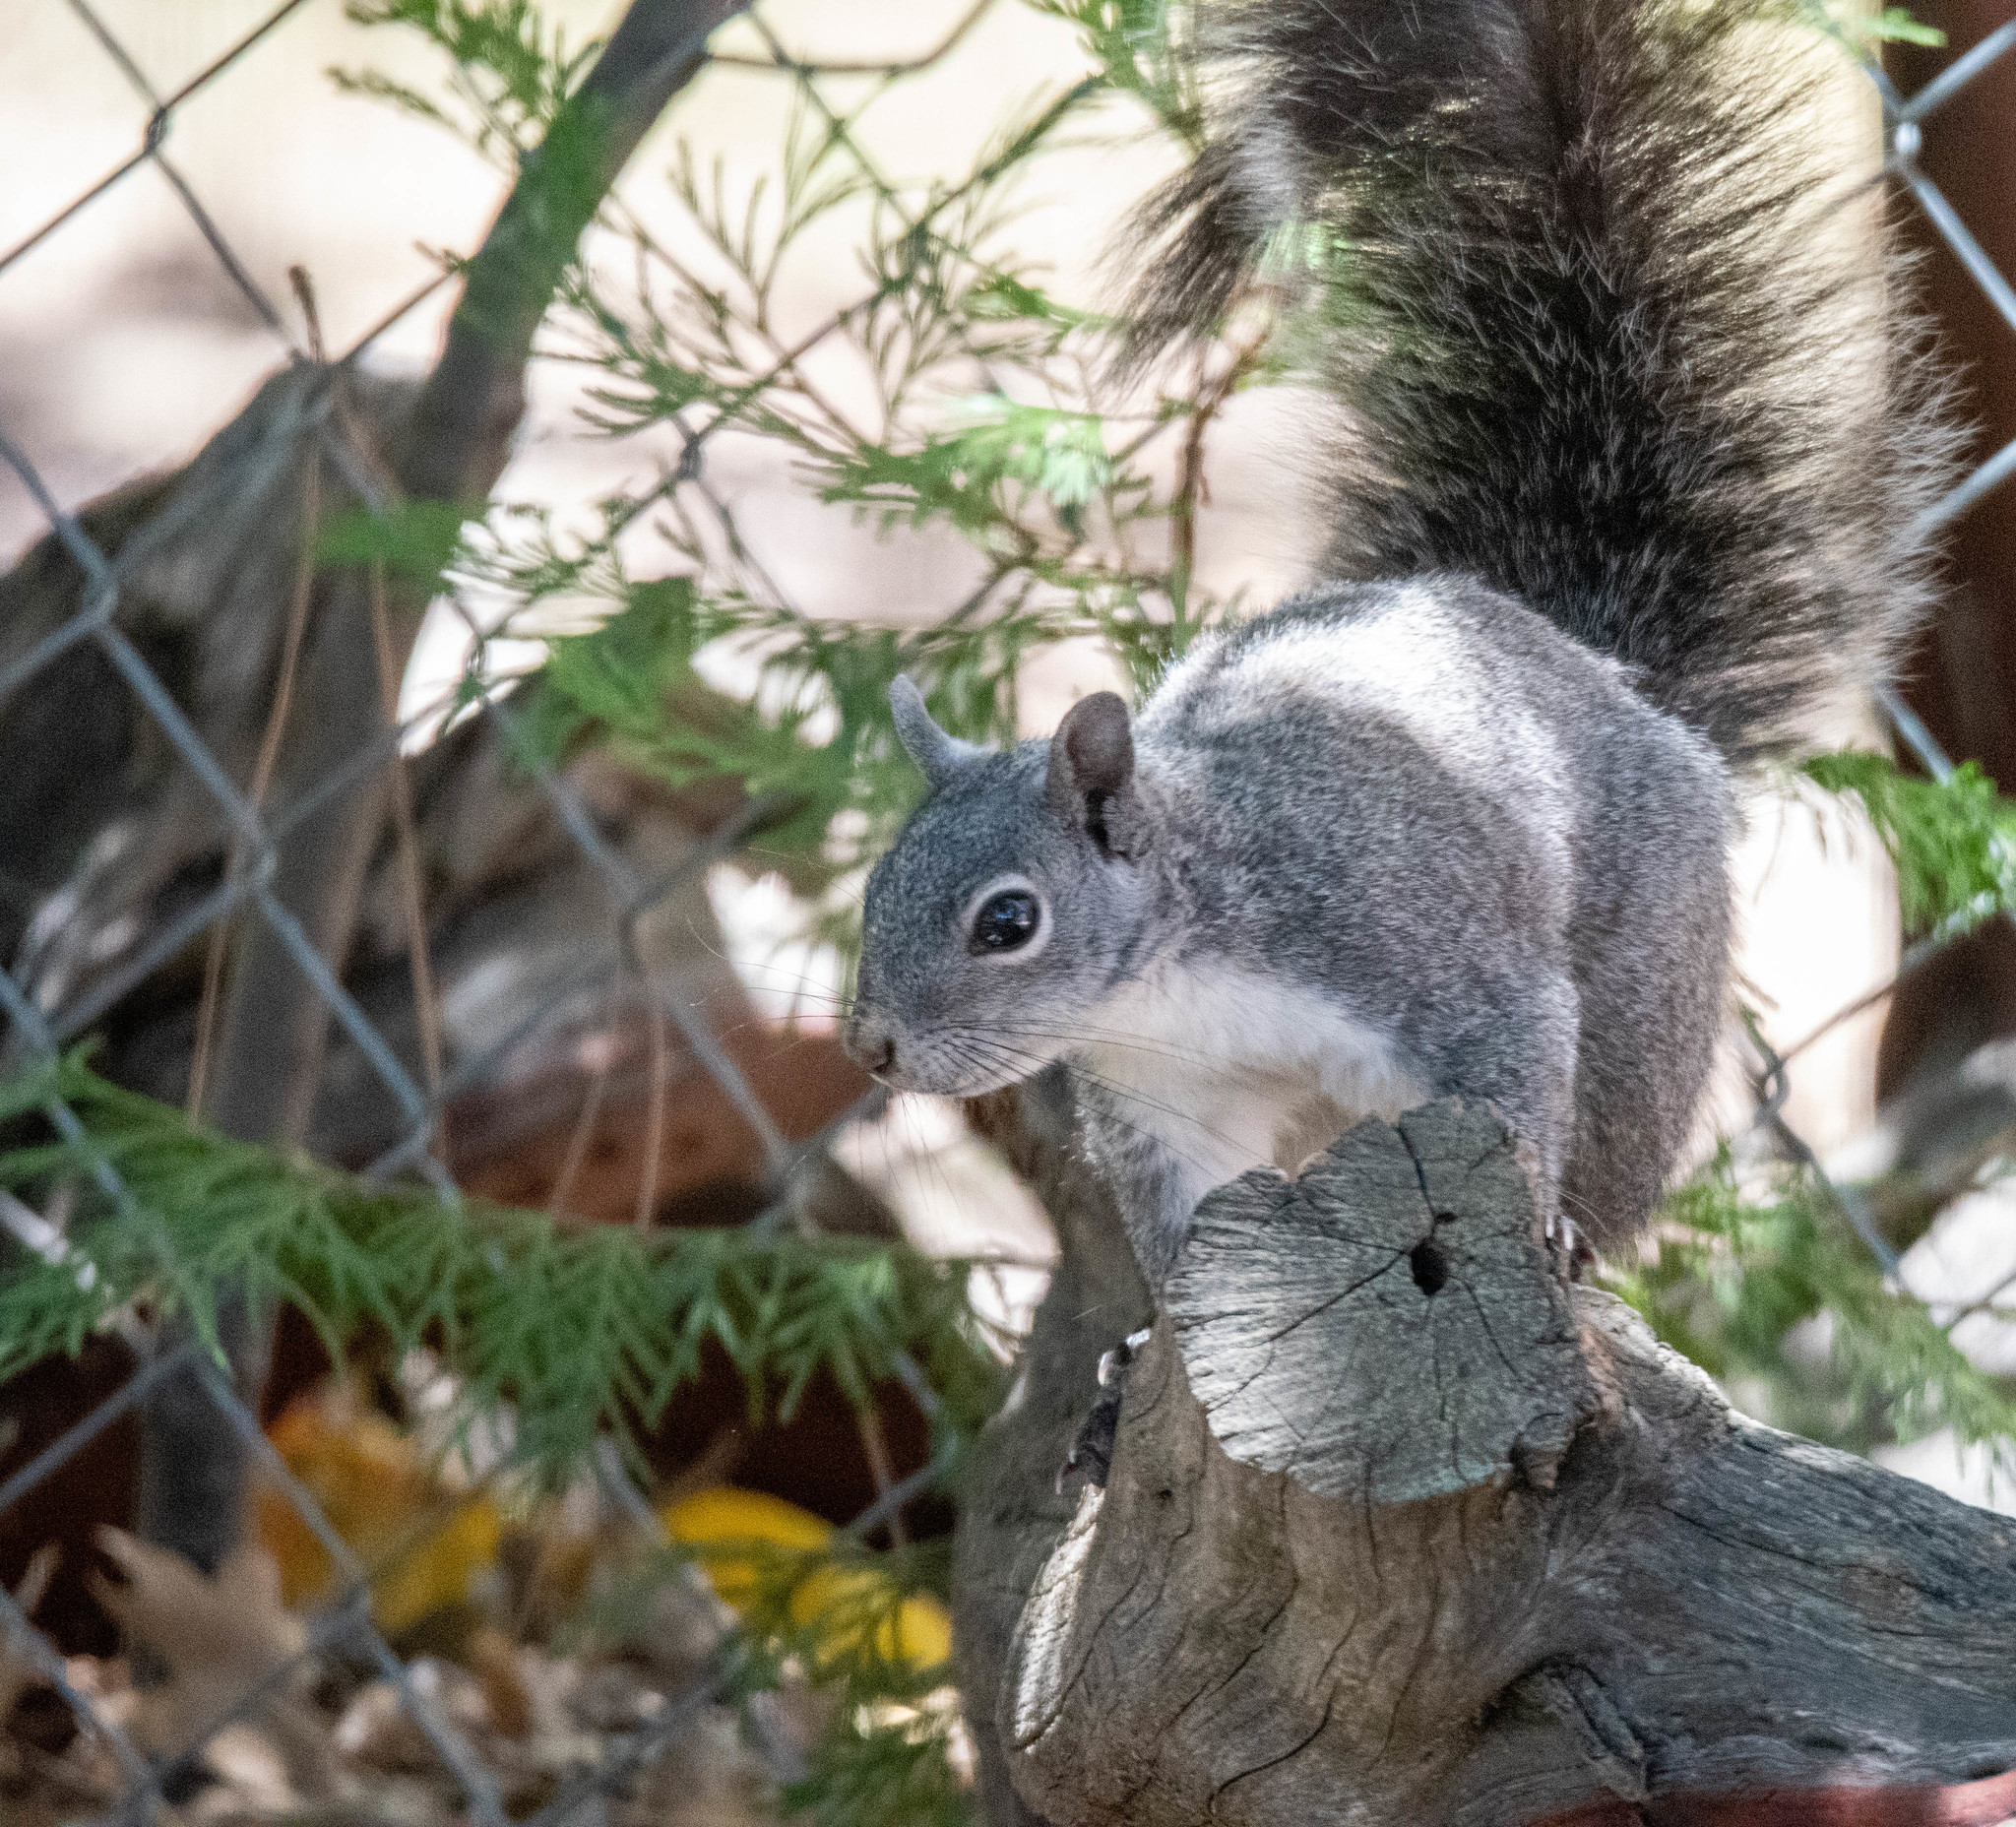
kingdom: Animalia
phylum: Chordata
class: Mammalia
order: Rodentia
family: Sciuridae
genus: Sciurus
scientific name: Sciurus griseus
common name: Western gray squirrel
